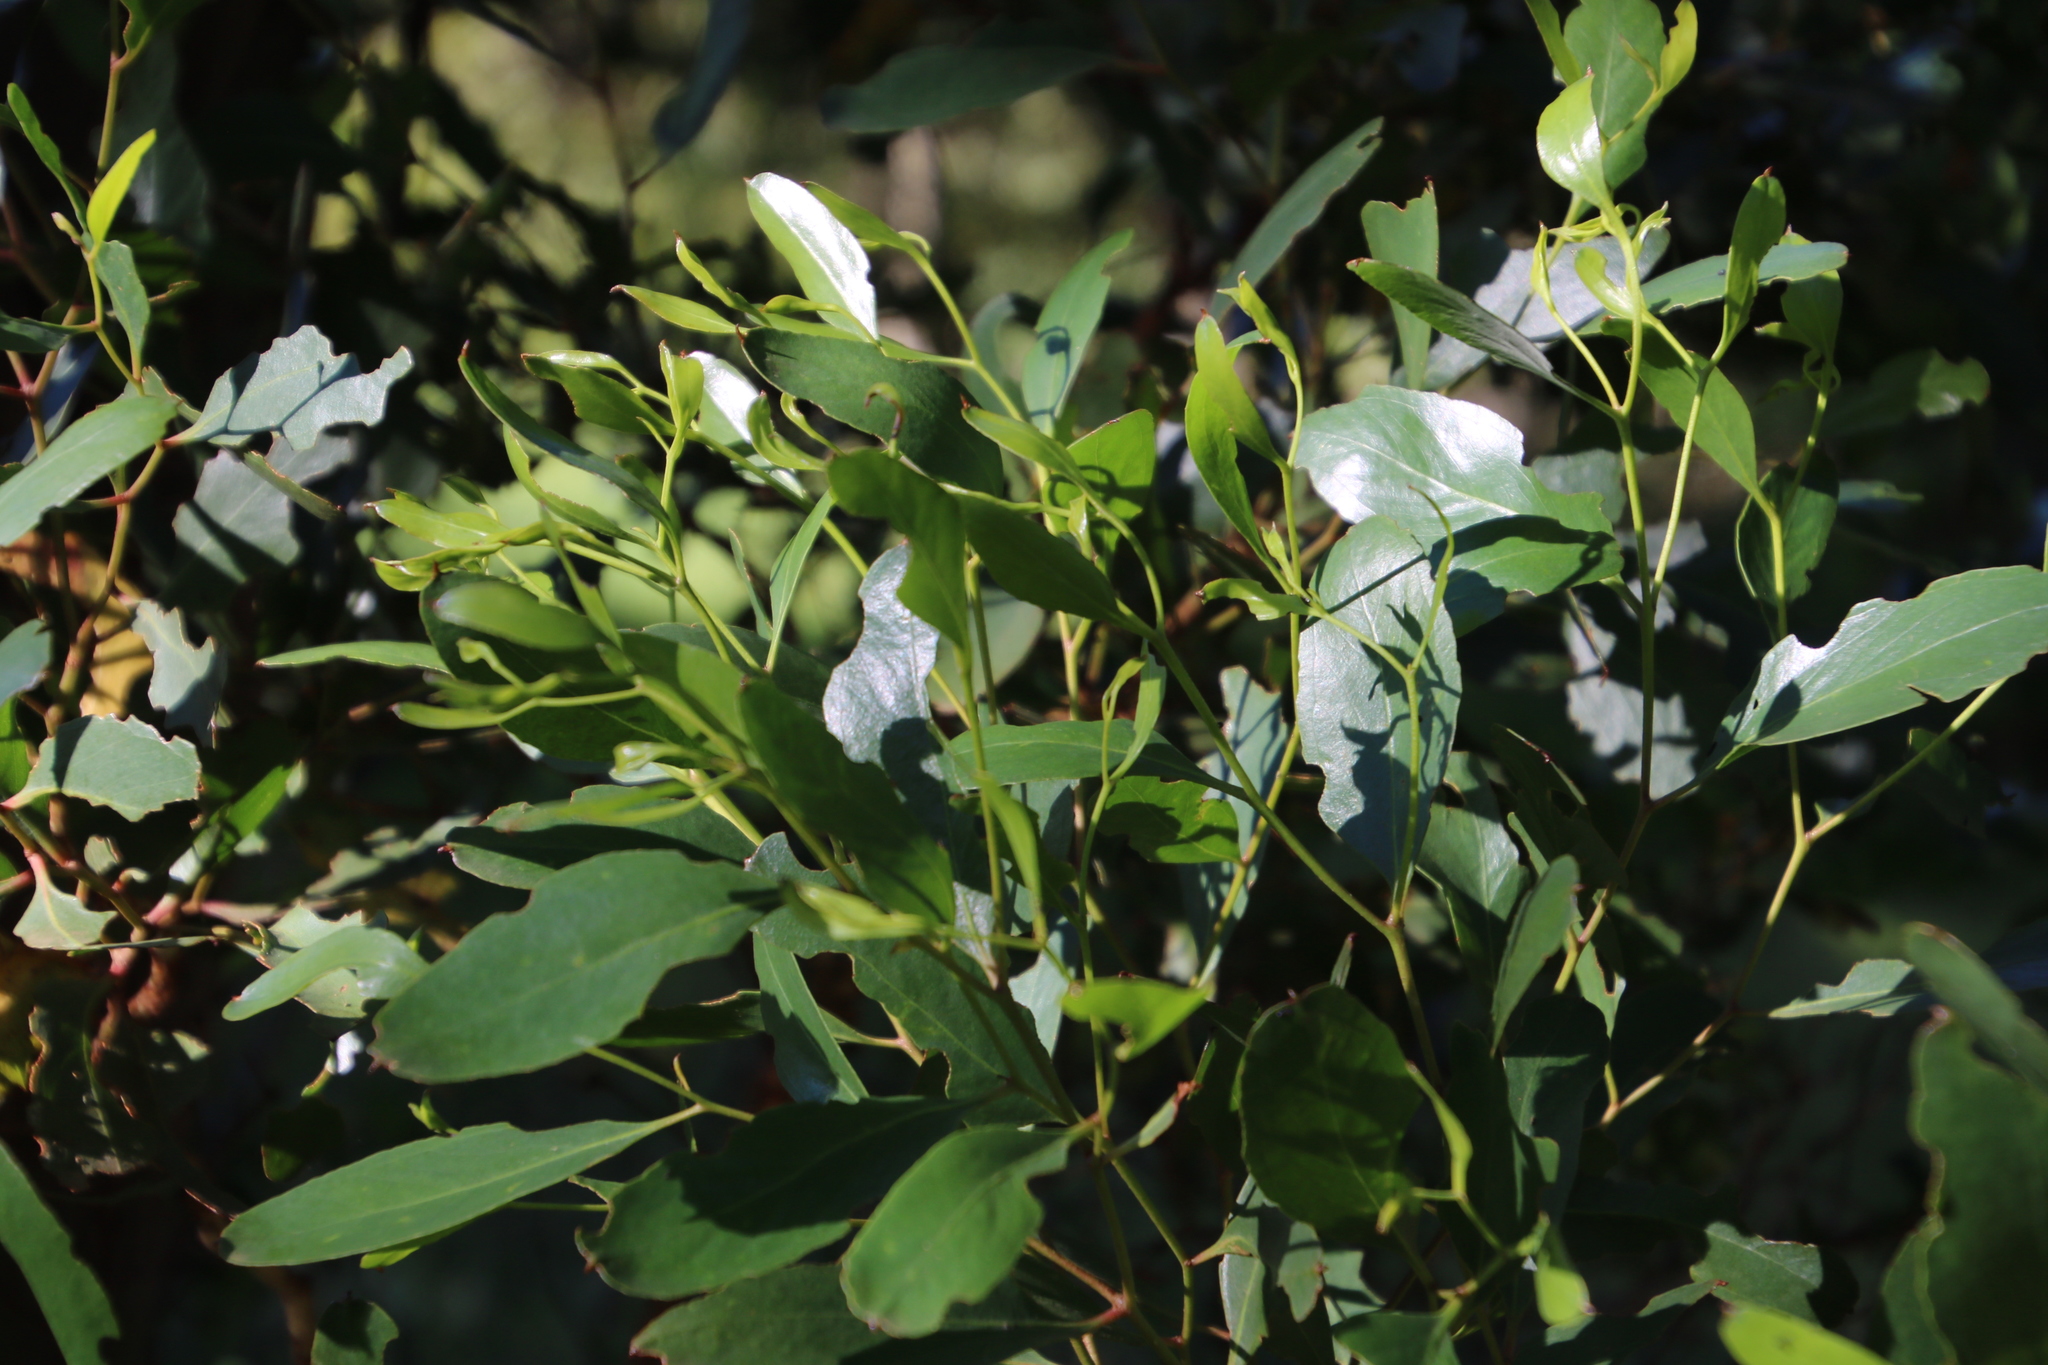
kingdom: Plantae
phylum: Tracheophyta
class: Magnoliopsida
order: Myrtales
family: Myrtaceae
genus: Eucalyptus
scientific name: Eucalyptus conferruminata
